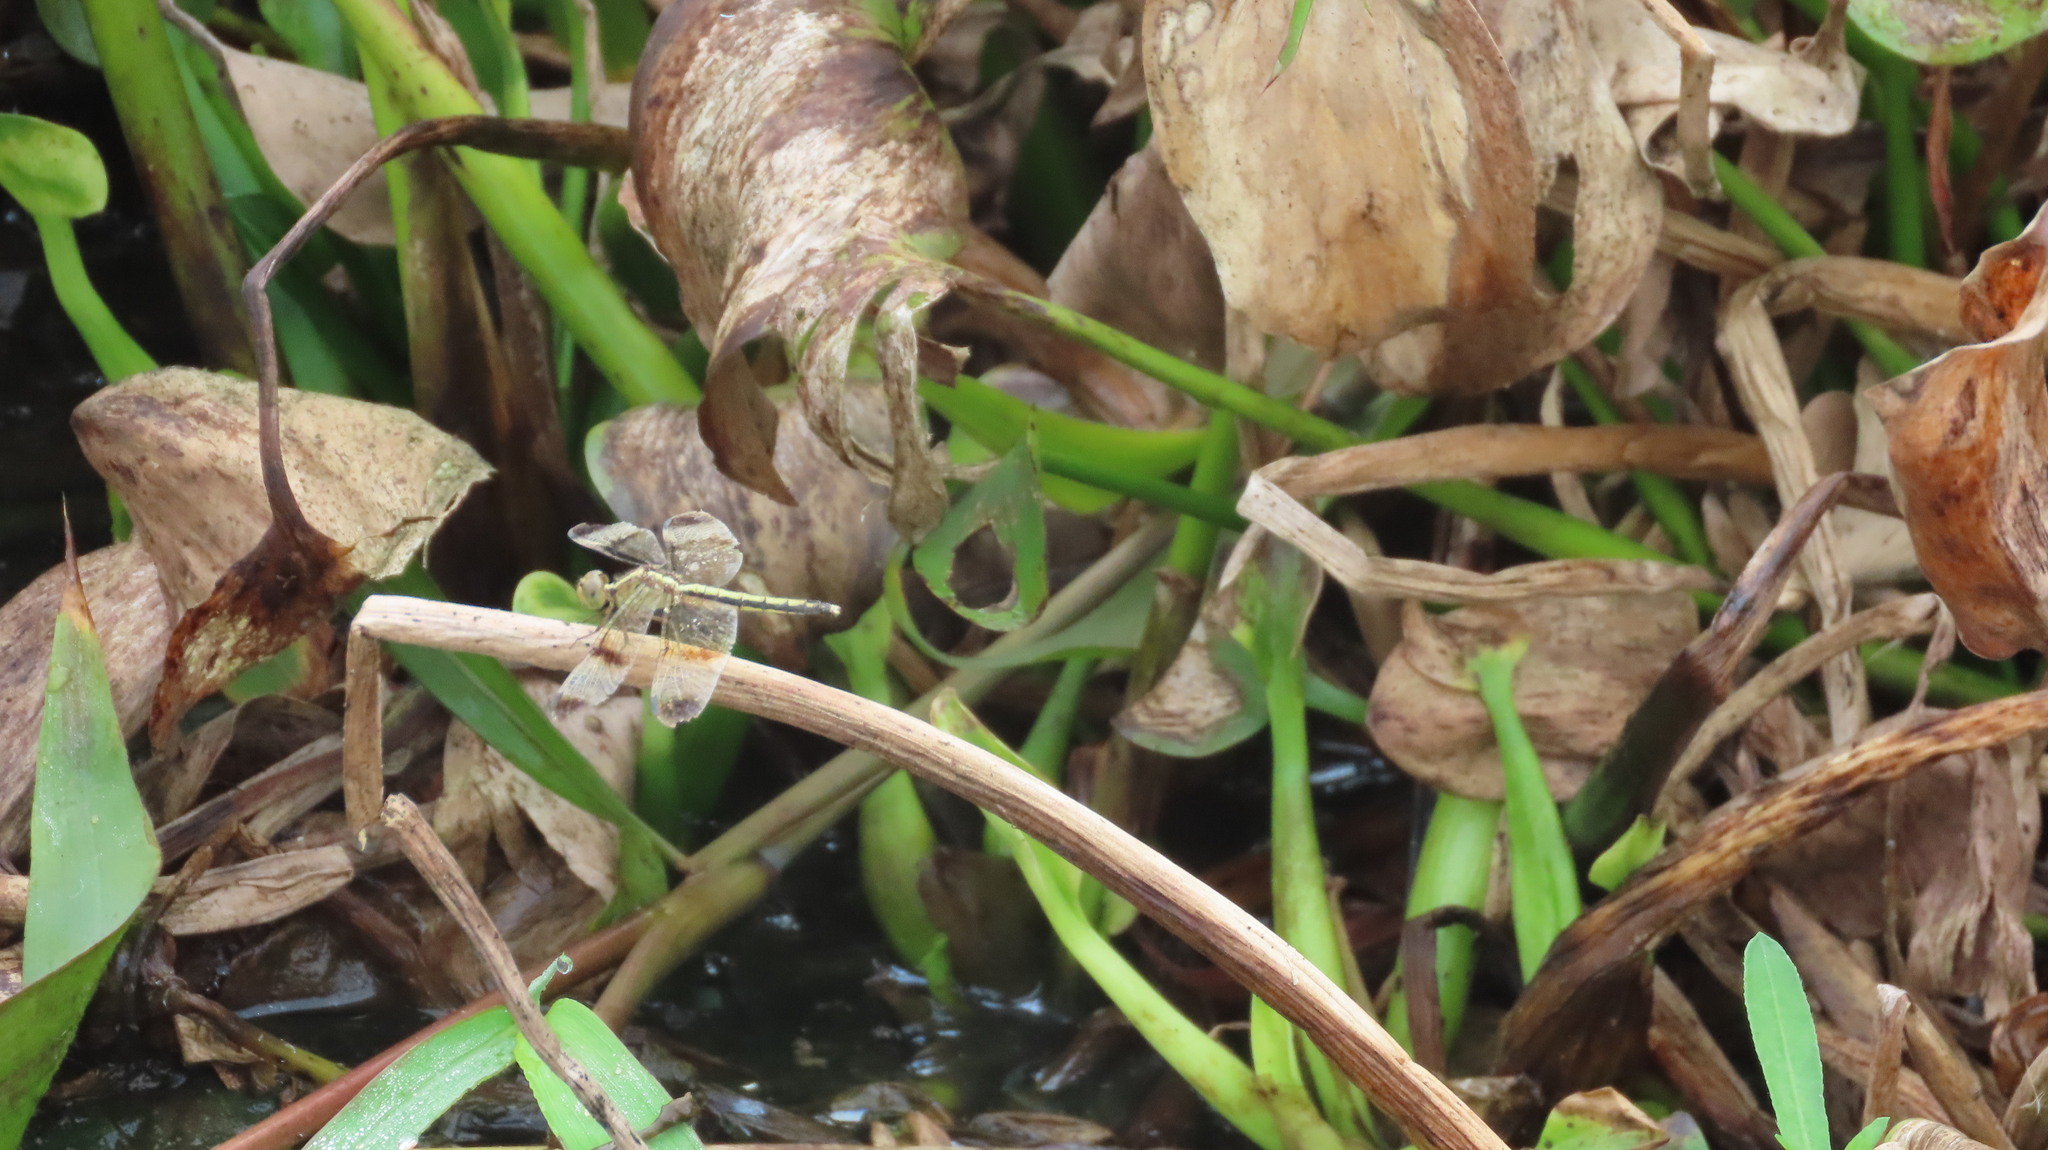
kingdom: Animalia
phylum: Arthropoda
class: Insecta
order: Odonata
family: Libellulidae
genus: Neurothemis
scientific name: Neurothemis tullia
